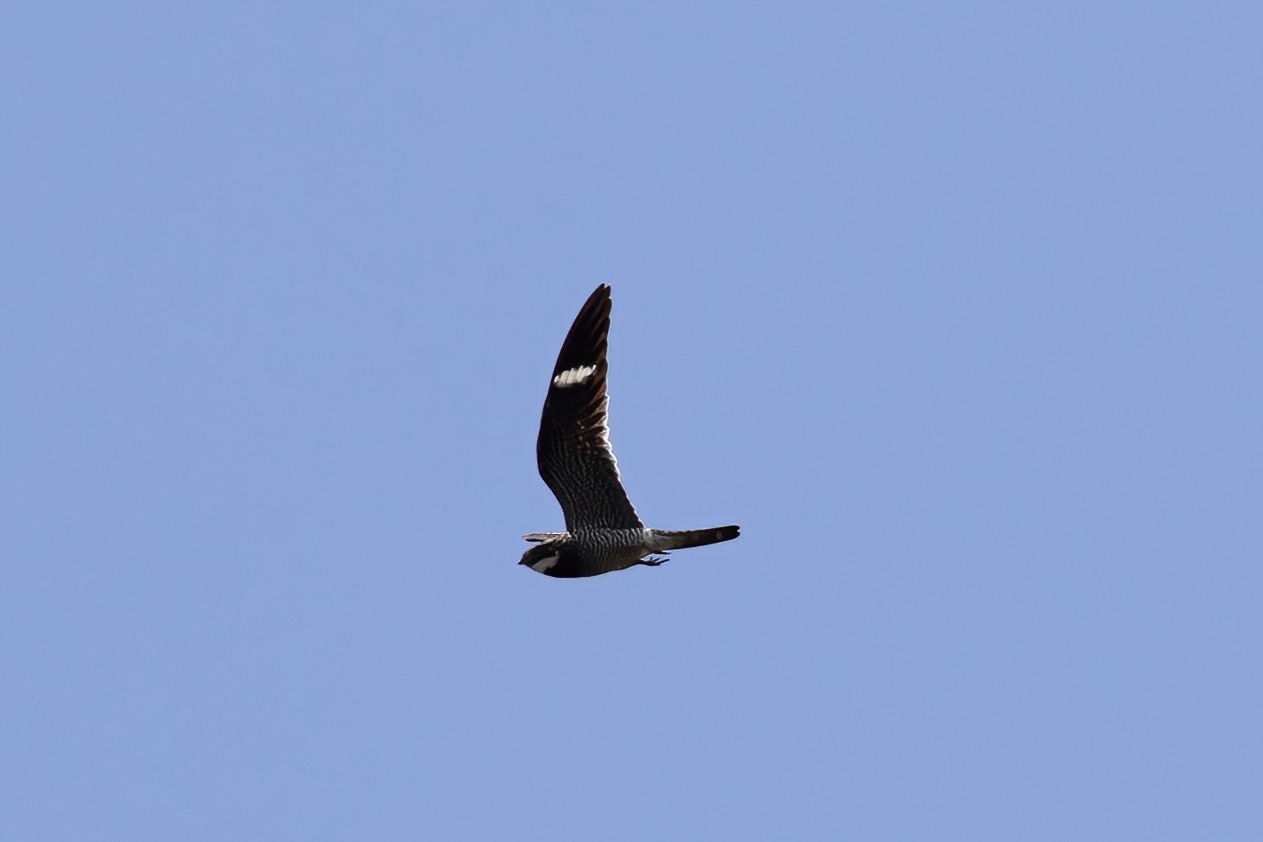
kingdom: Animalia
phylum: Chordata
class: Aves
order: Caprimulgiformes
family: Caprimulgidae
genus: Chordeiles
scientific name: Chordeiles minor
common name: Common nighthawk
